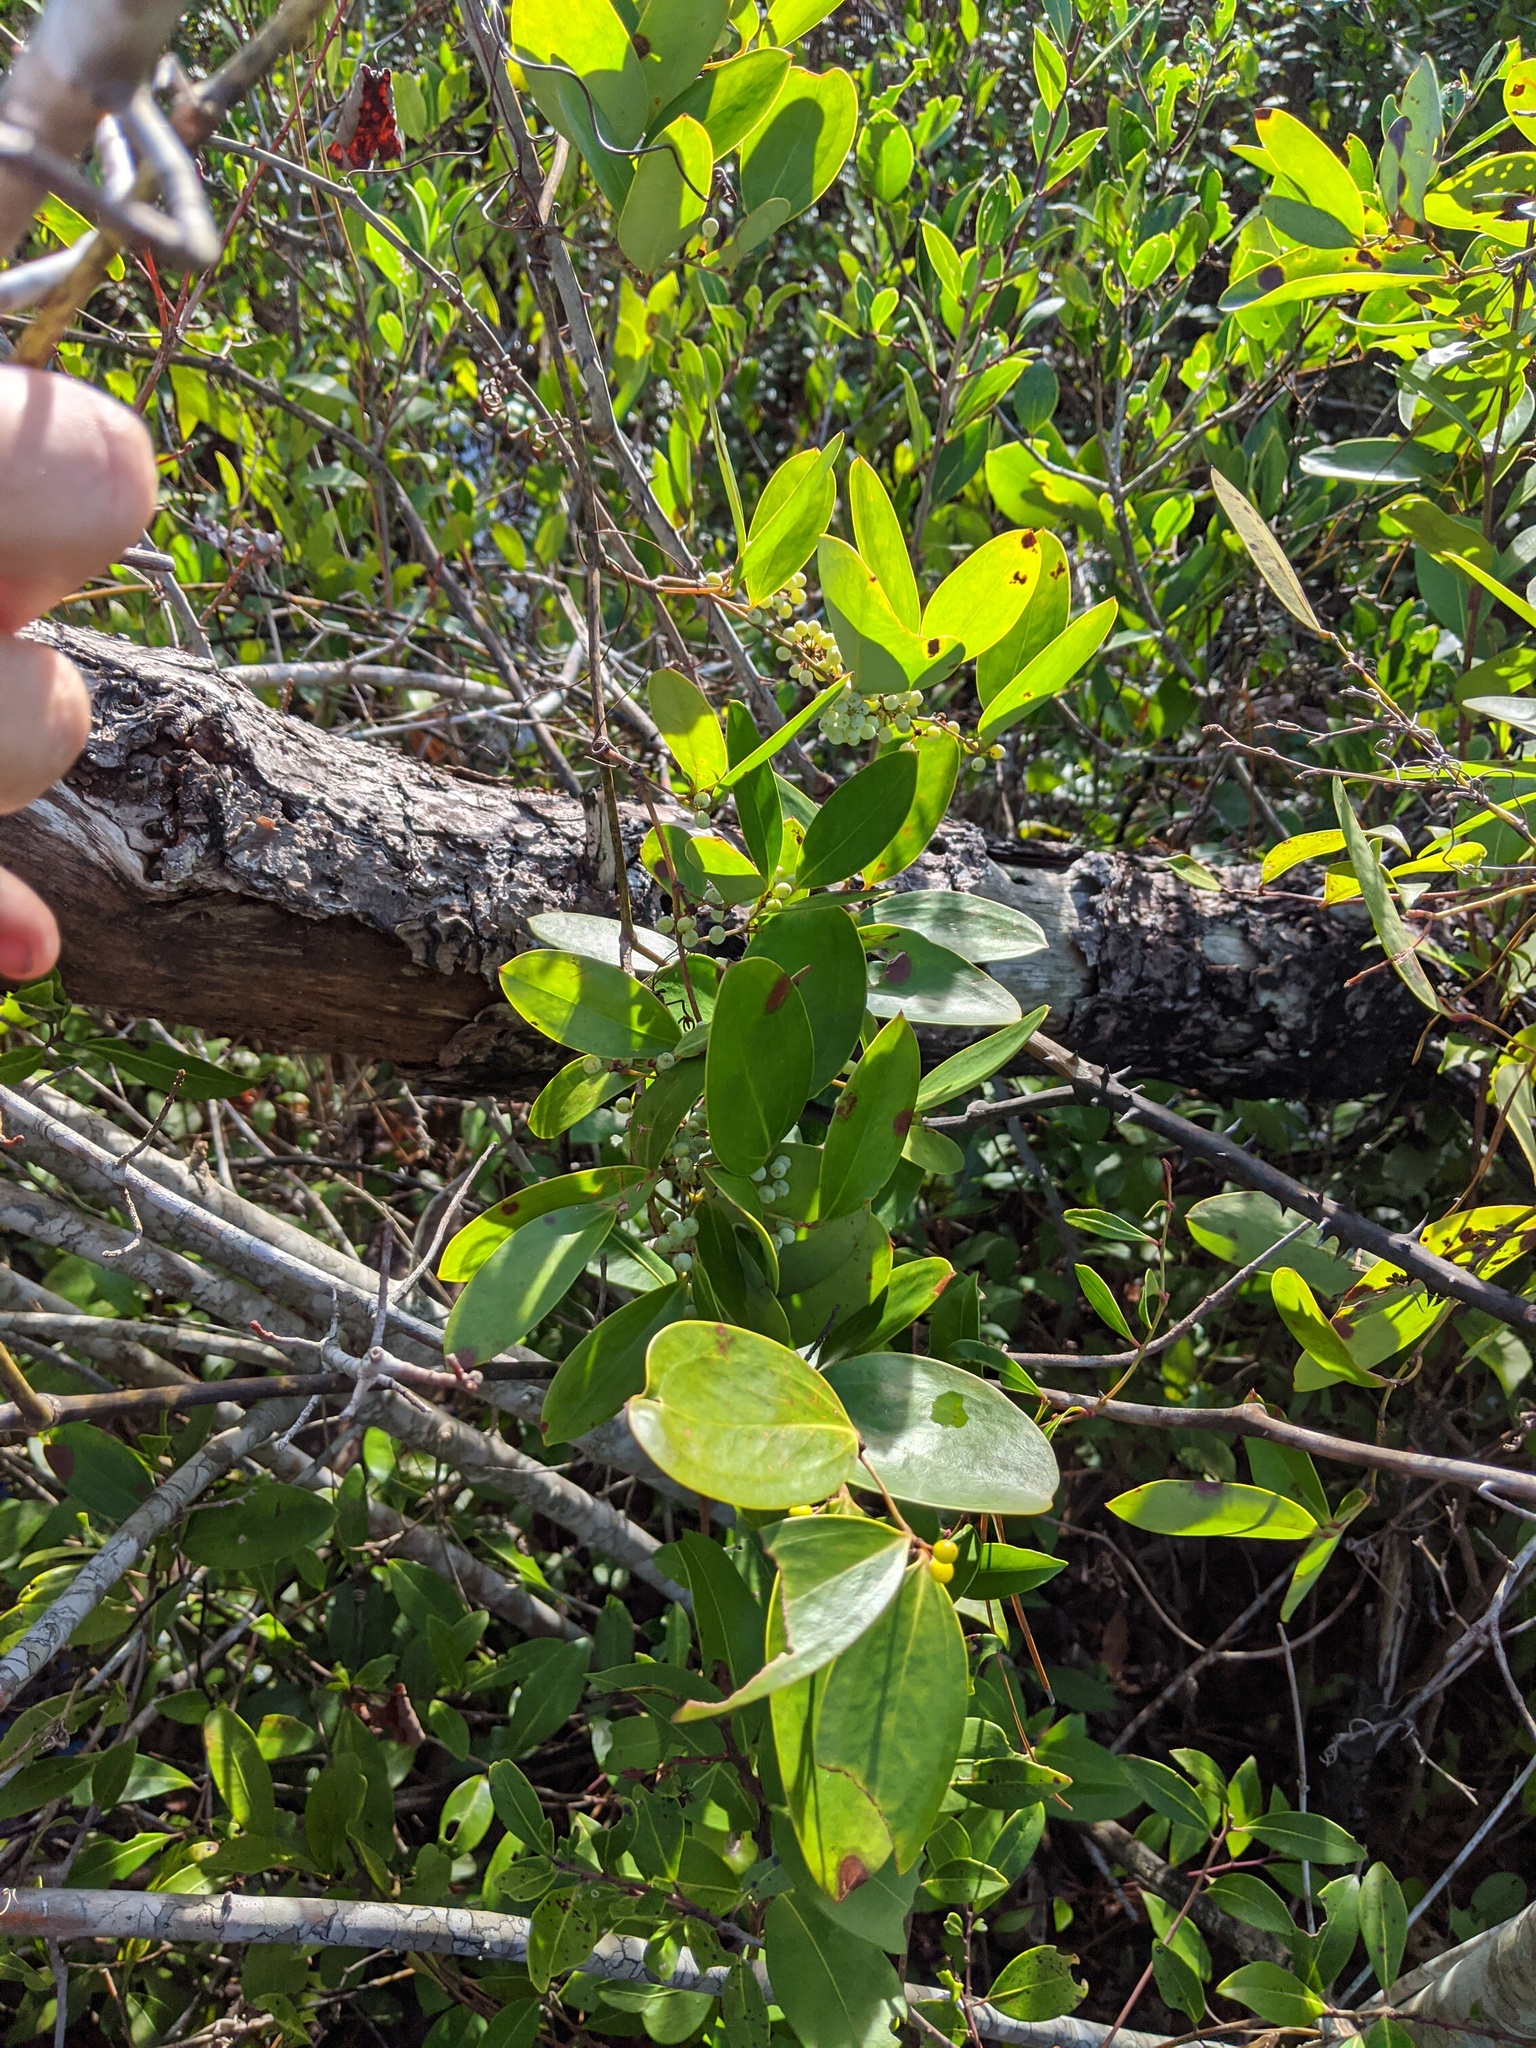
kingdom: Plantae
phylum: Tracheophyta
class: Liliopsida
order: Liliales
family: Smilacaceae
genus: Smilax
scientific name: Smilax laurifolia
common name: Bamboovine
